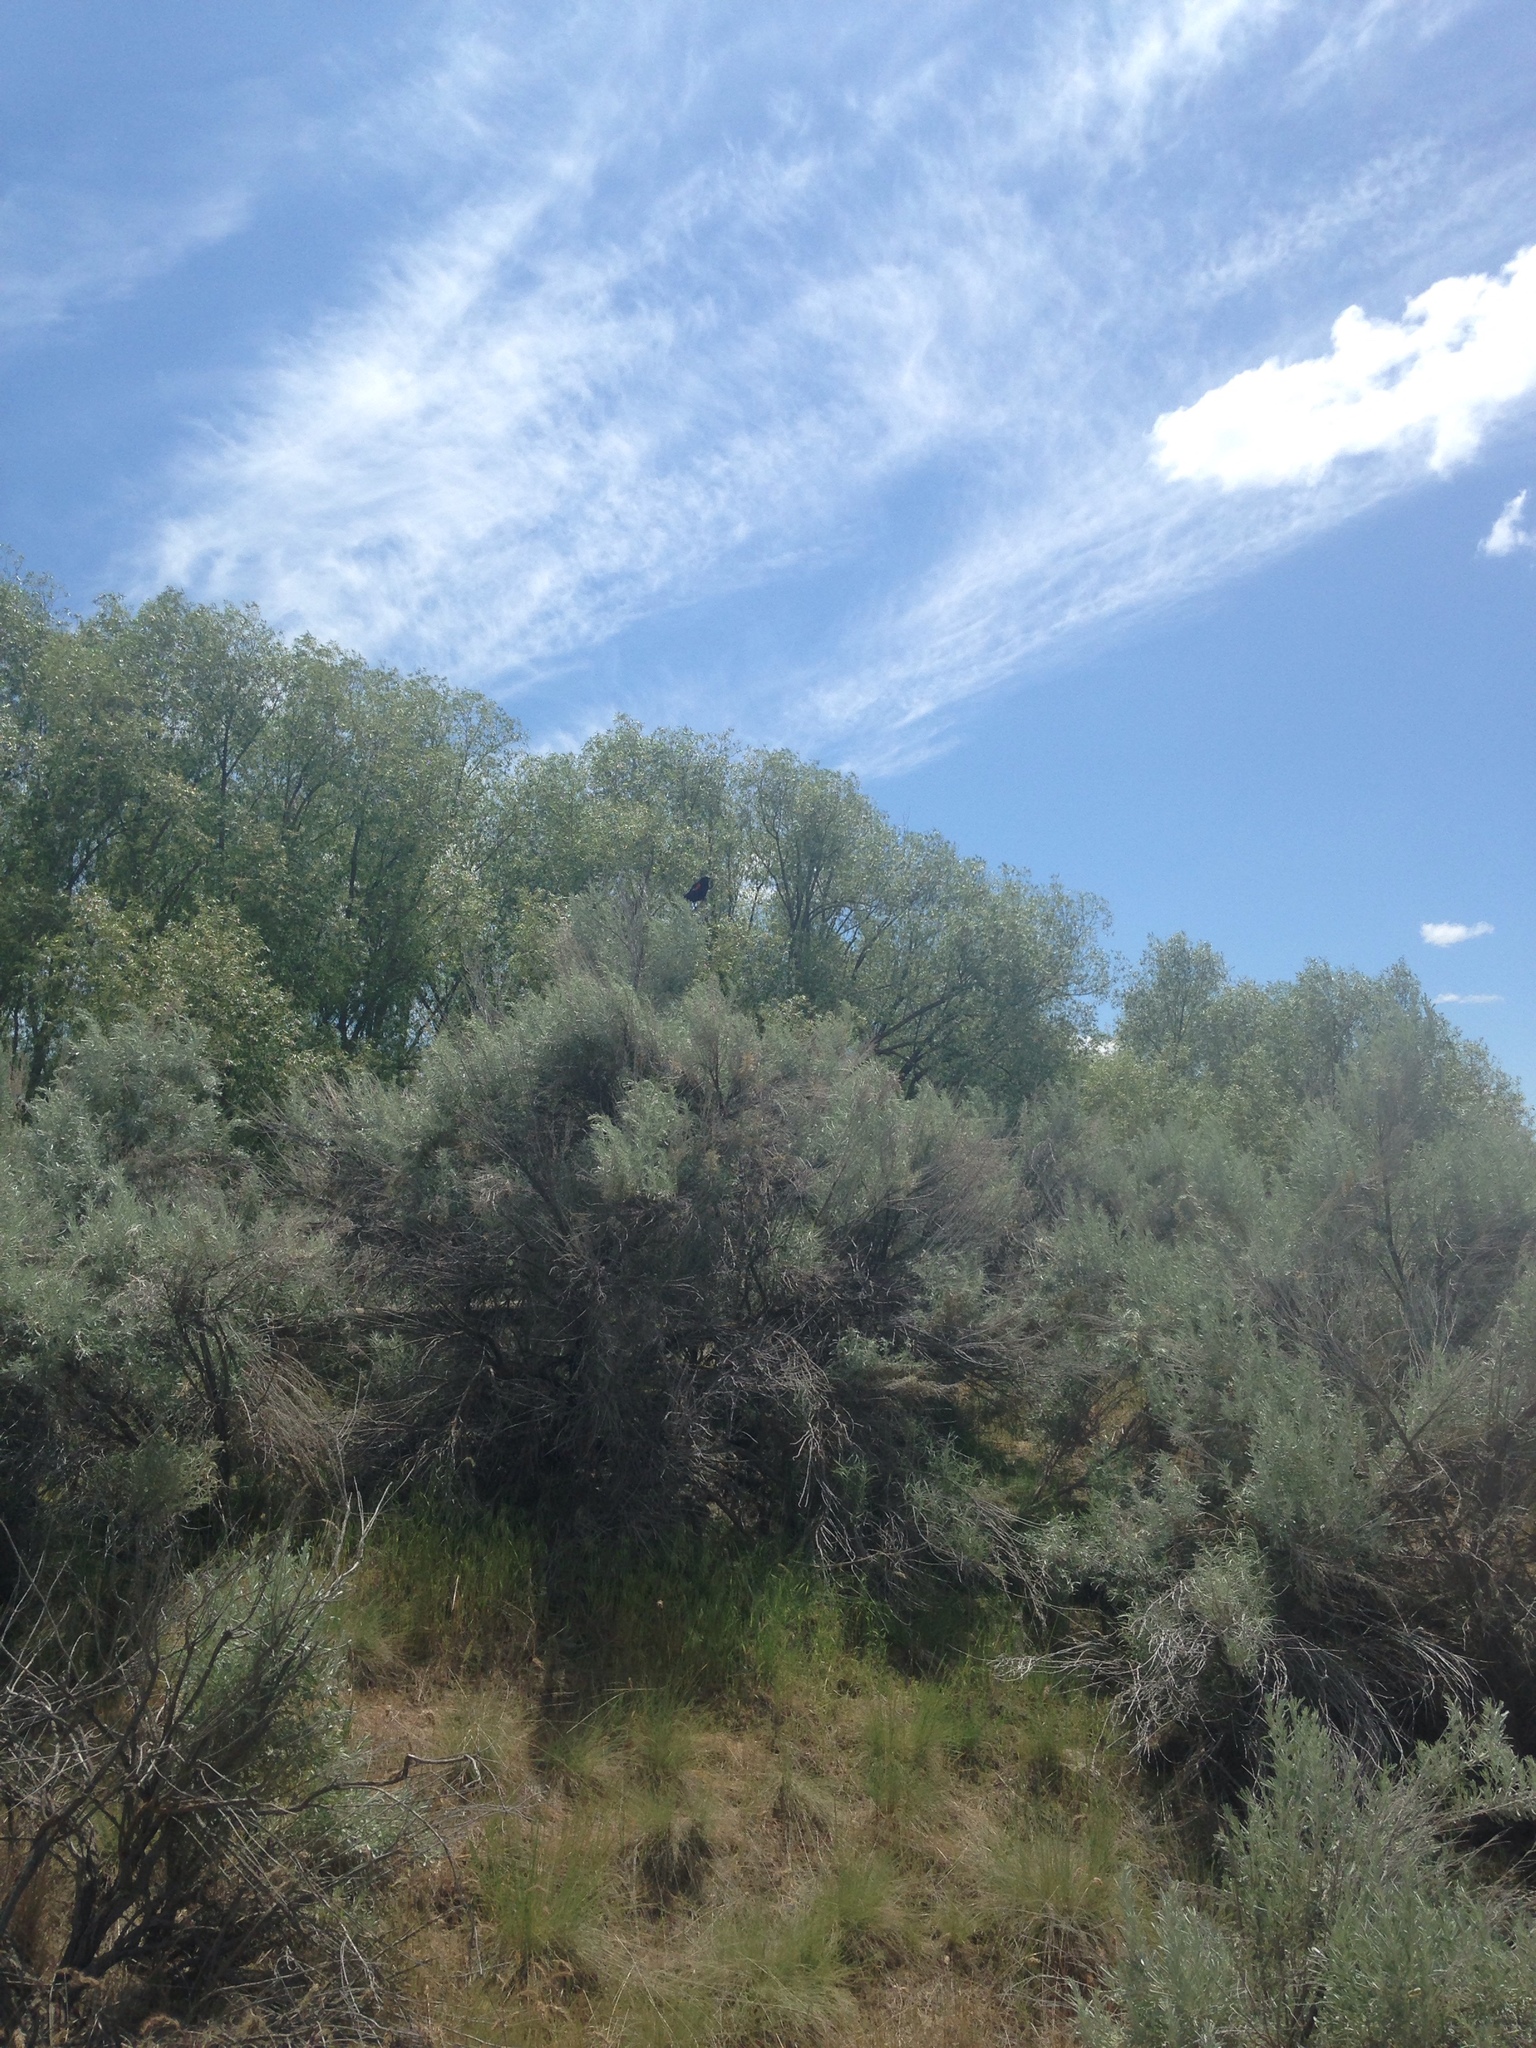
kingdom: Animalia
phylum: Chordata
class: Aves
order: Passeriformes
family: Icteridae
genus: Agelaius
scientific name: Agelaius phoeniceus
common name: Red-winged blackbird
